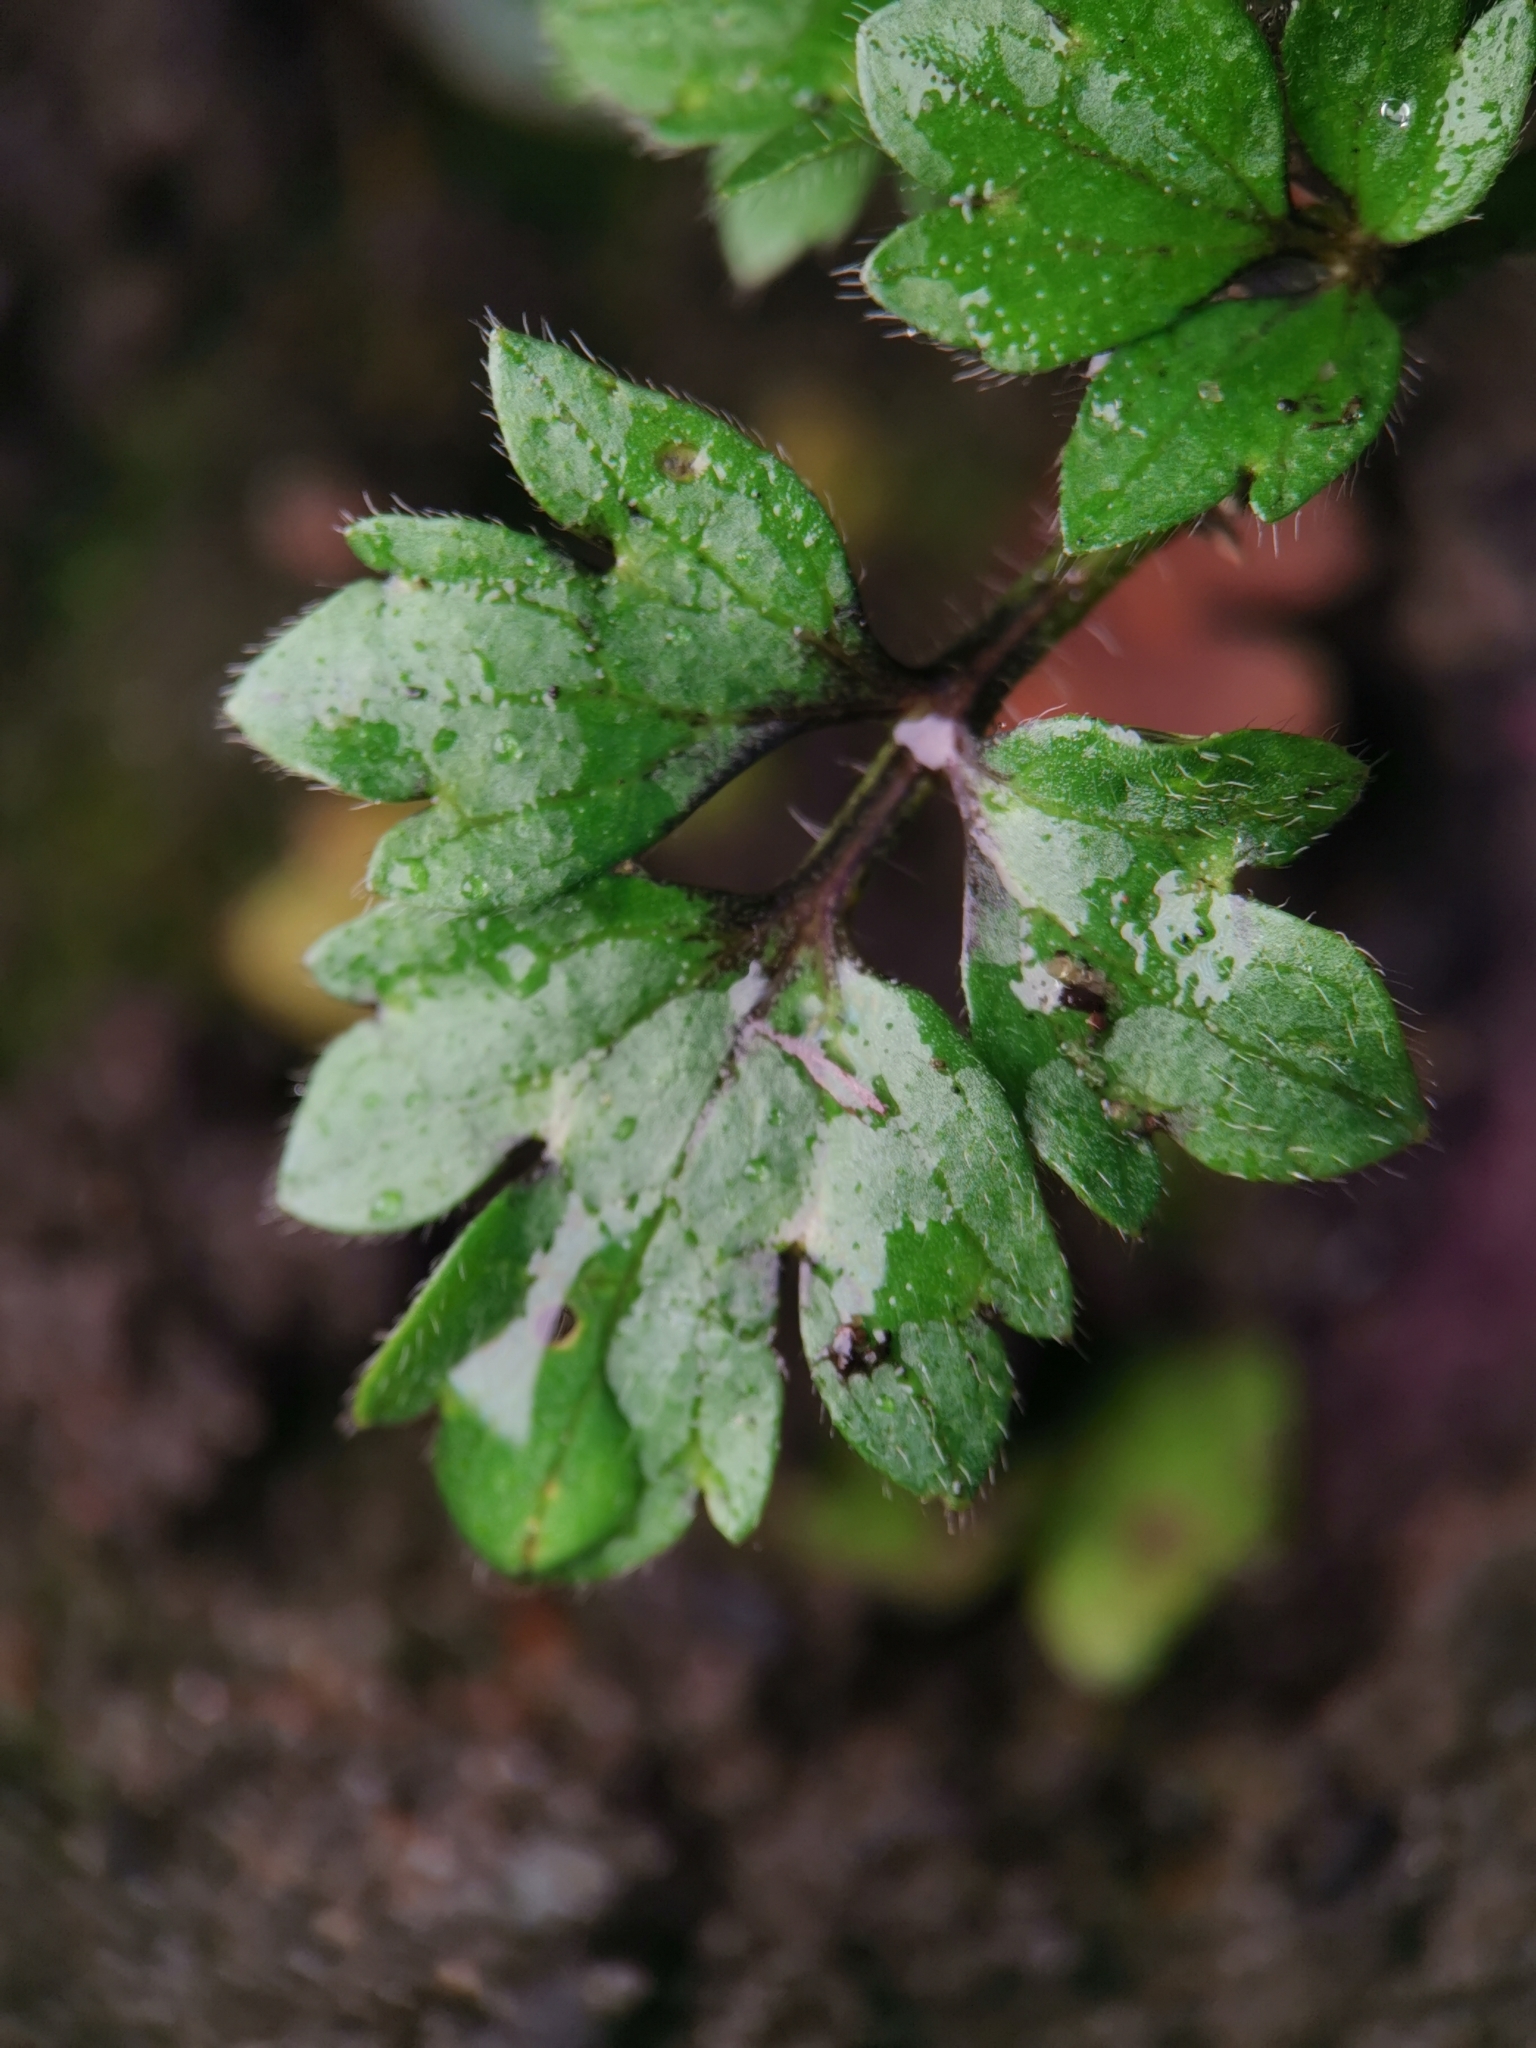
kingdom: Plantae
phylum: Tracheophyta
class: Magnoliopsida
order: Ranunculales
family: Ranunculaceae
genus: Ranunculus
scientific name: Ranunculus repens
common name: Creeping buttercup
